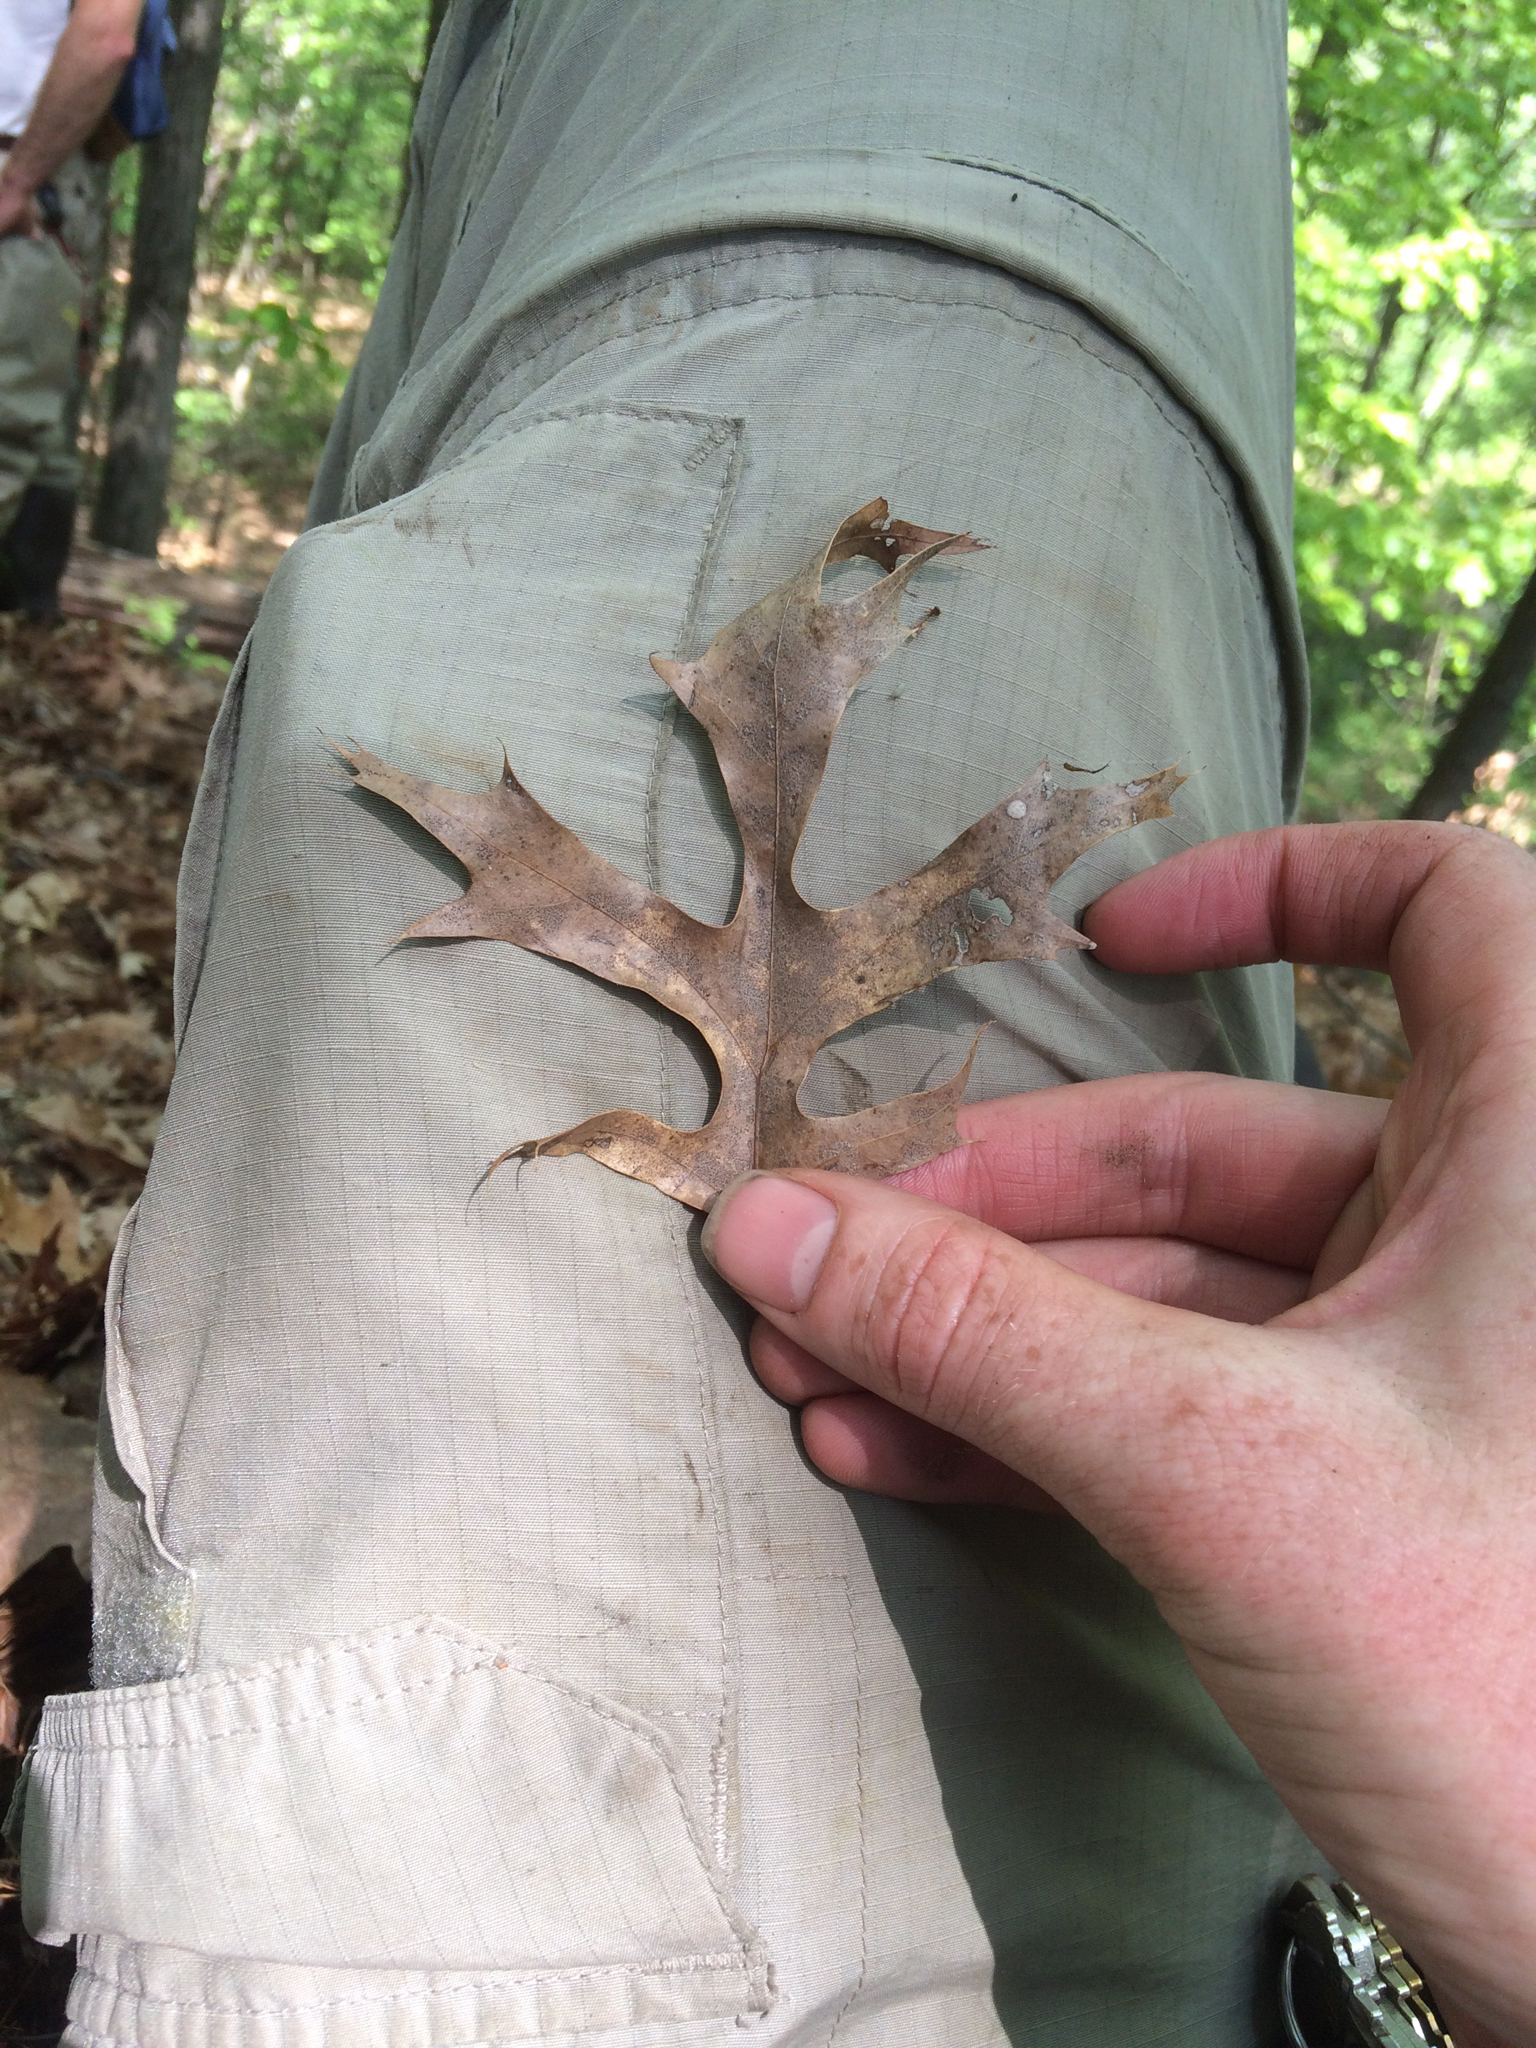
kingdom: Plantae
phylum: Tracheophyta
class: Magnoliopsida
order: Fagales
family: Fagaceae
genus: Quercus
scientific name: Quercus coccinea
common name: Scarlet oak
